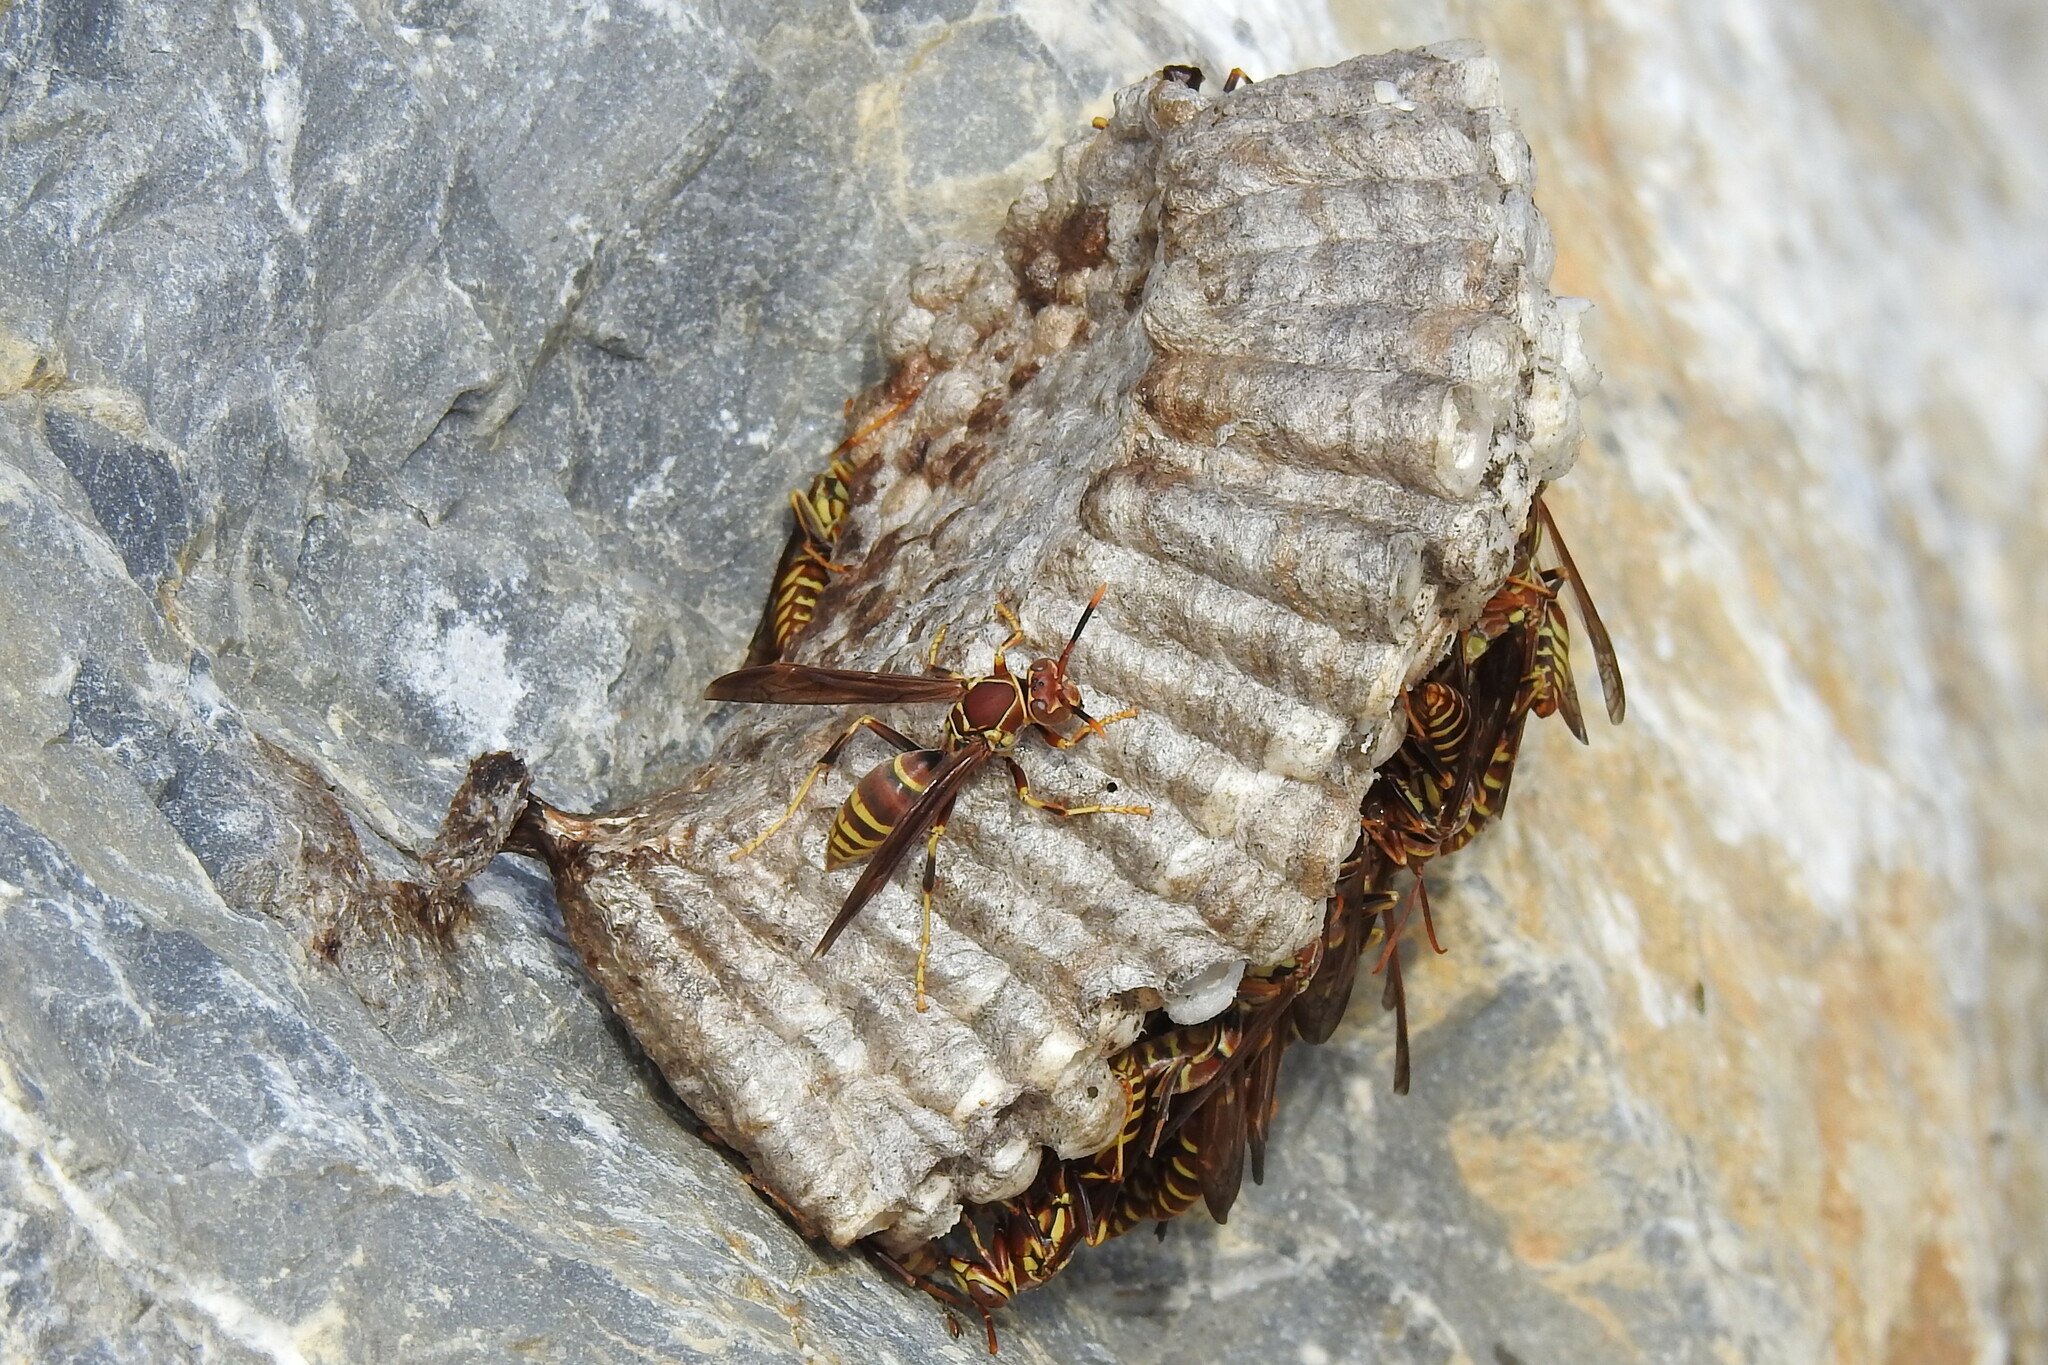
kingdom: Animalia
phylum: Arthropoda
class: Insecta
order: Hymenoptera
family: Eumenidae
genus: Polistes
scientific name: Polistes exclamans
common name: Paper wasp
